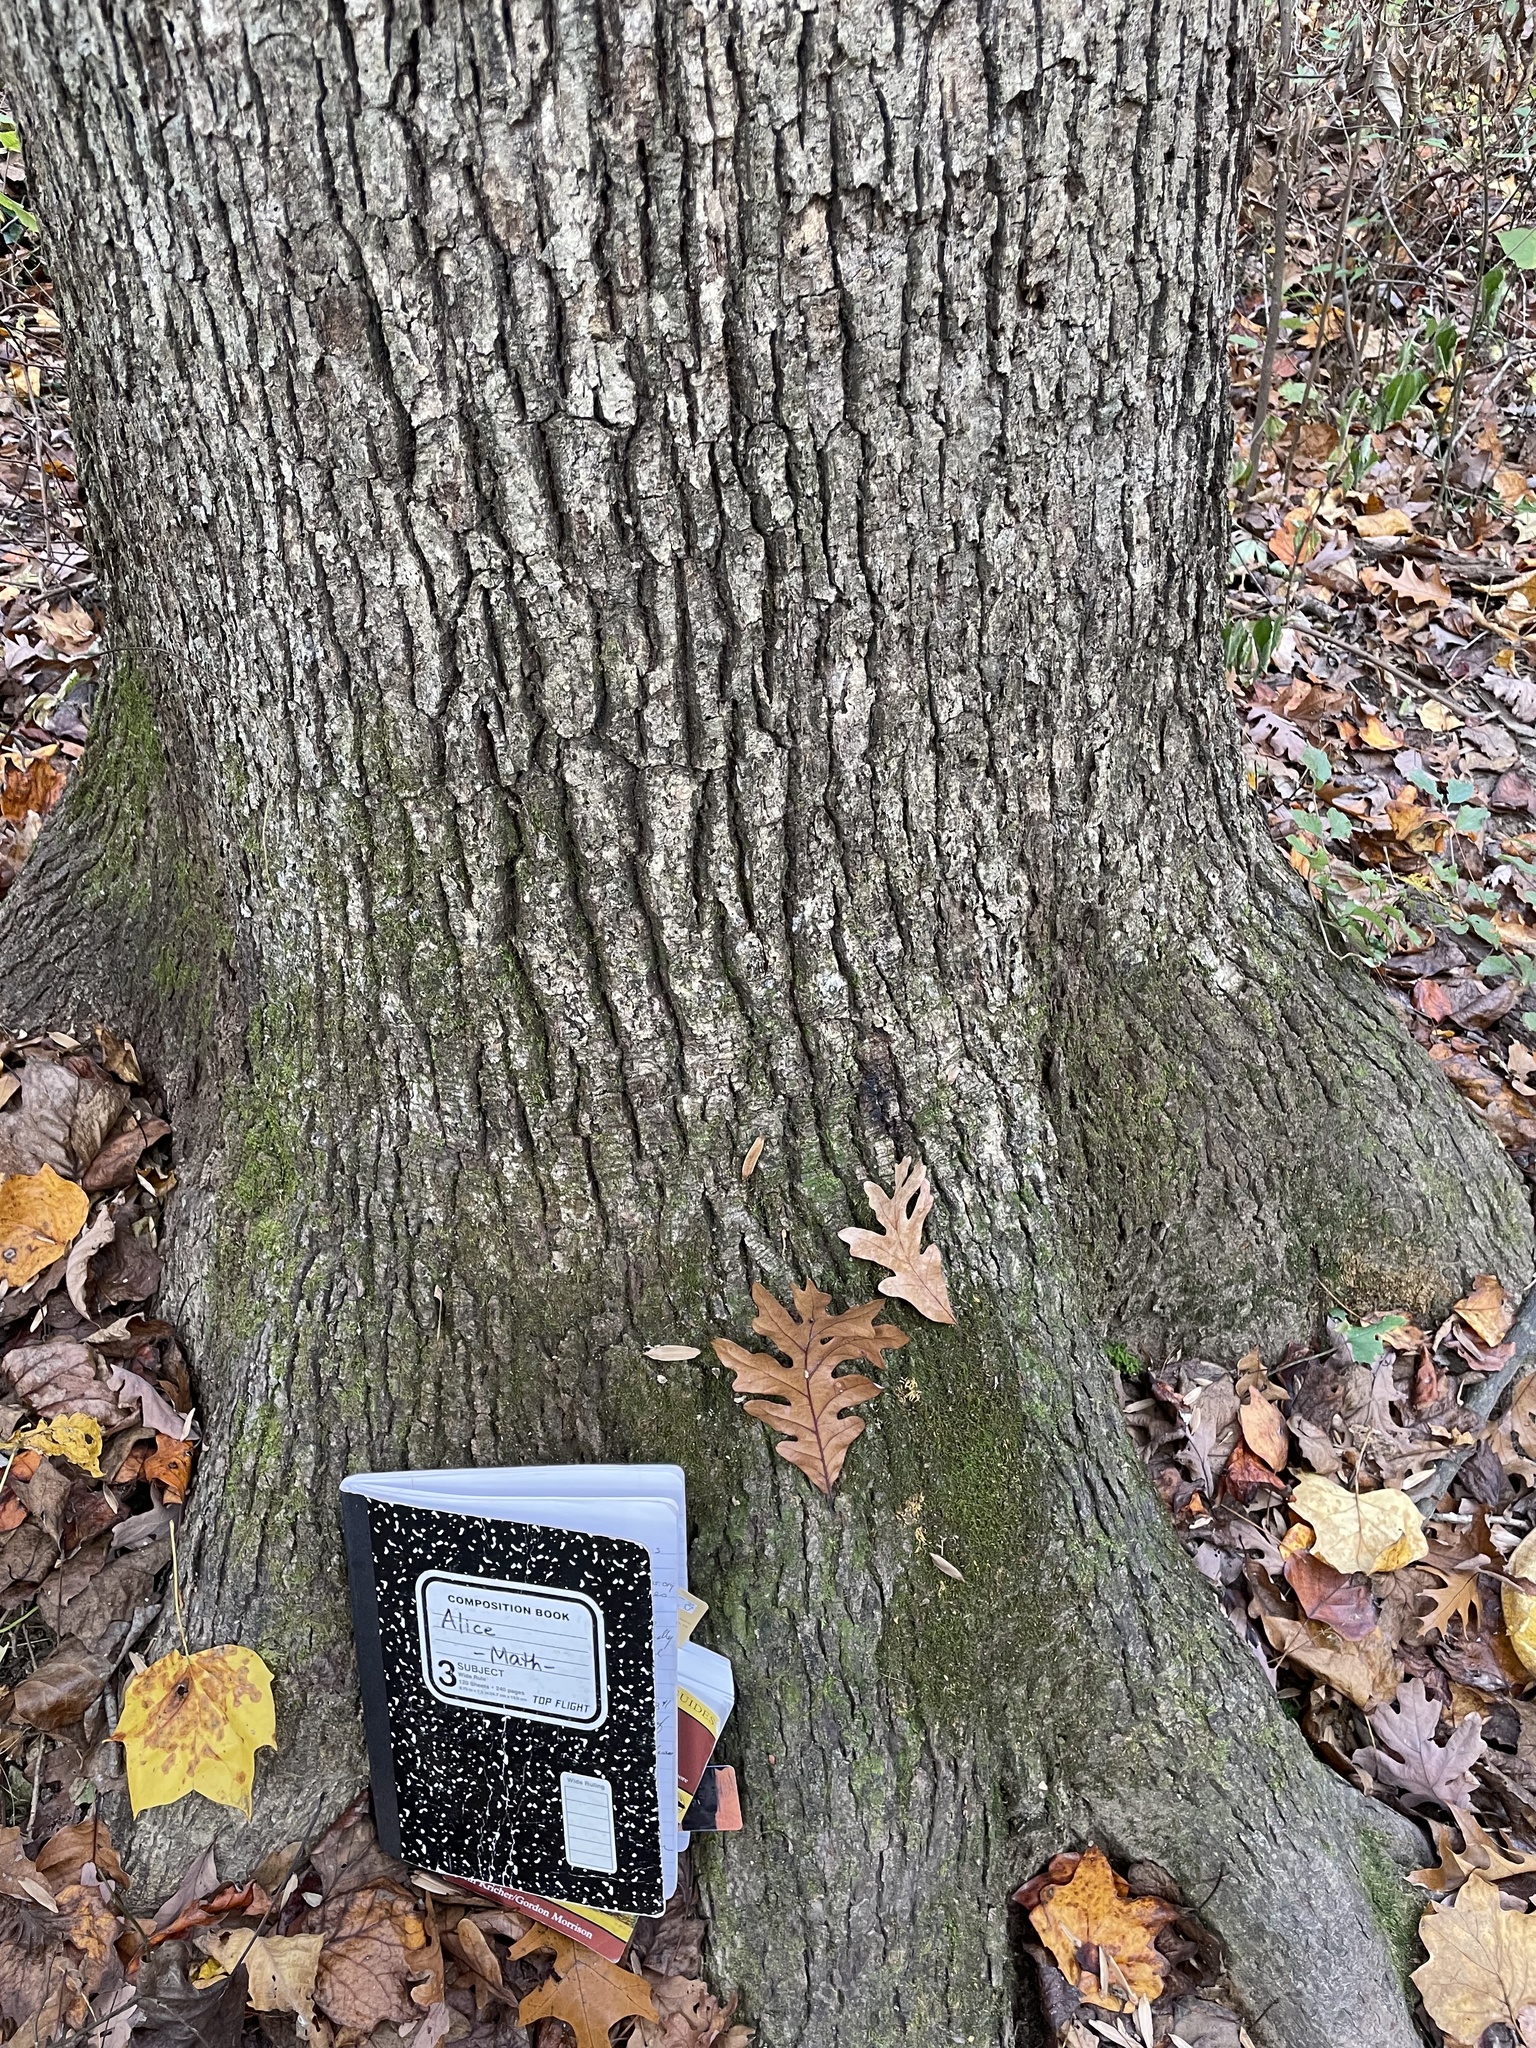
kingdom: Plantae
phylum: Tracheophyta
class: Magnoliopsida
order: Fagales
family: Fagaceae
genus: Quercus
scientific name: Quercus alba
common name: White oak
